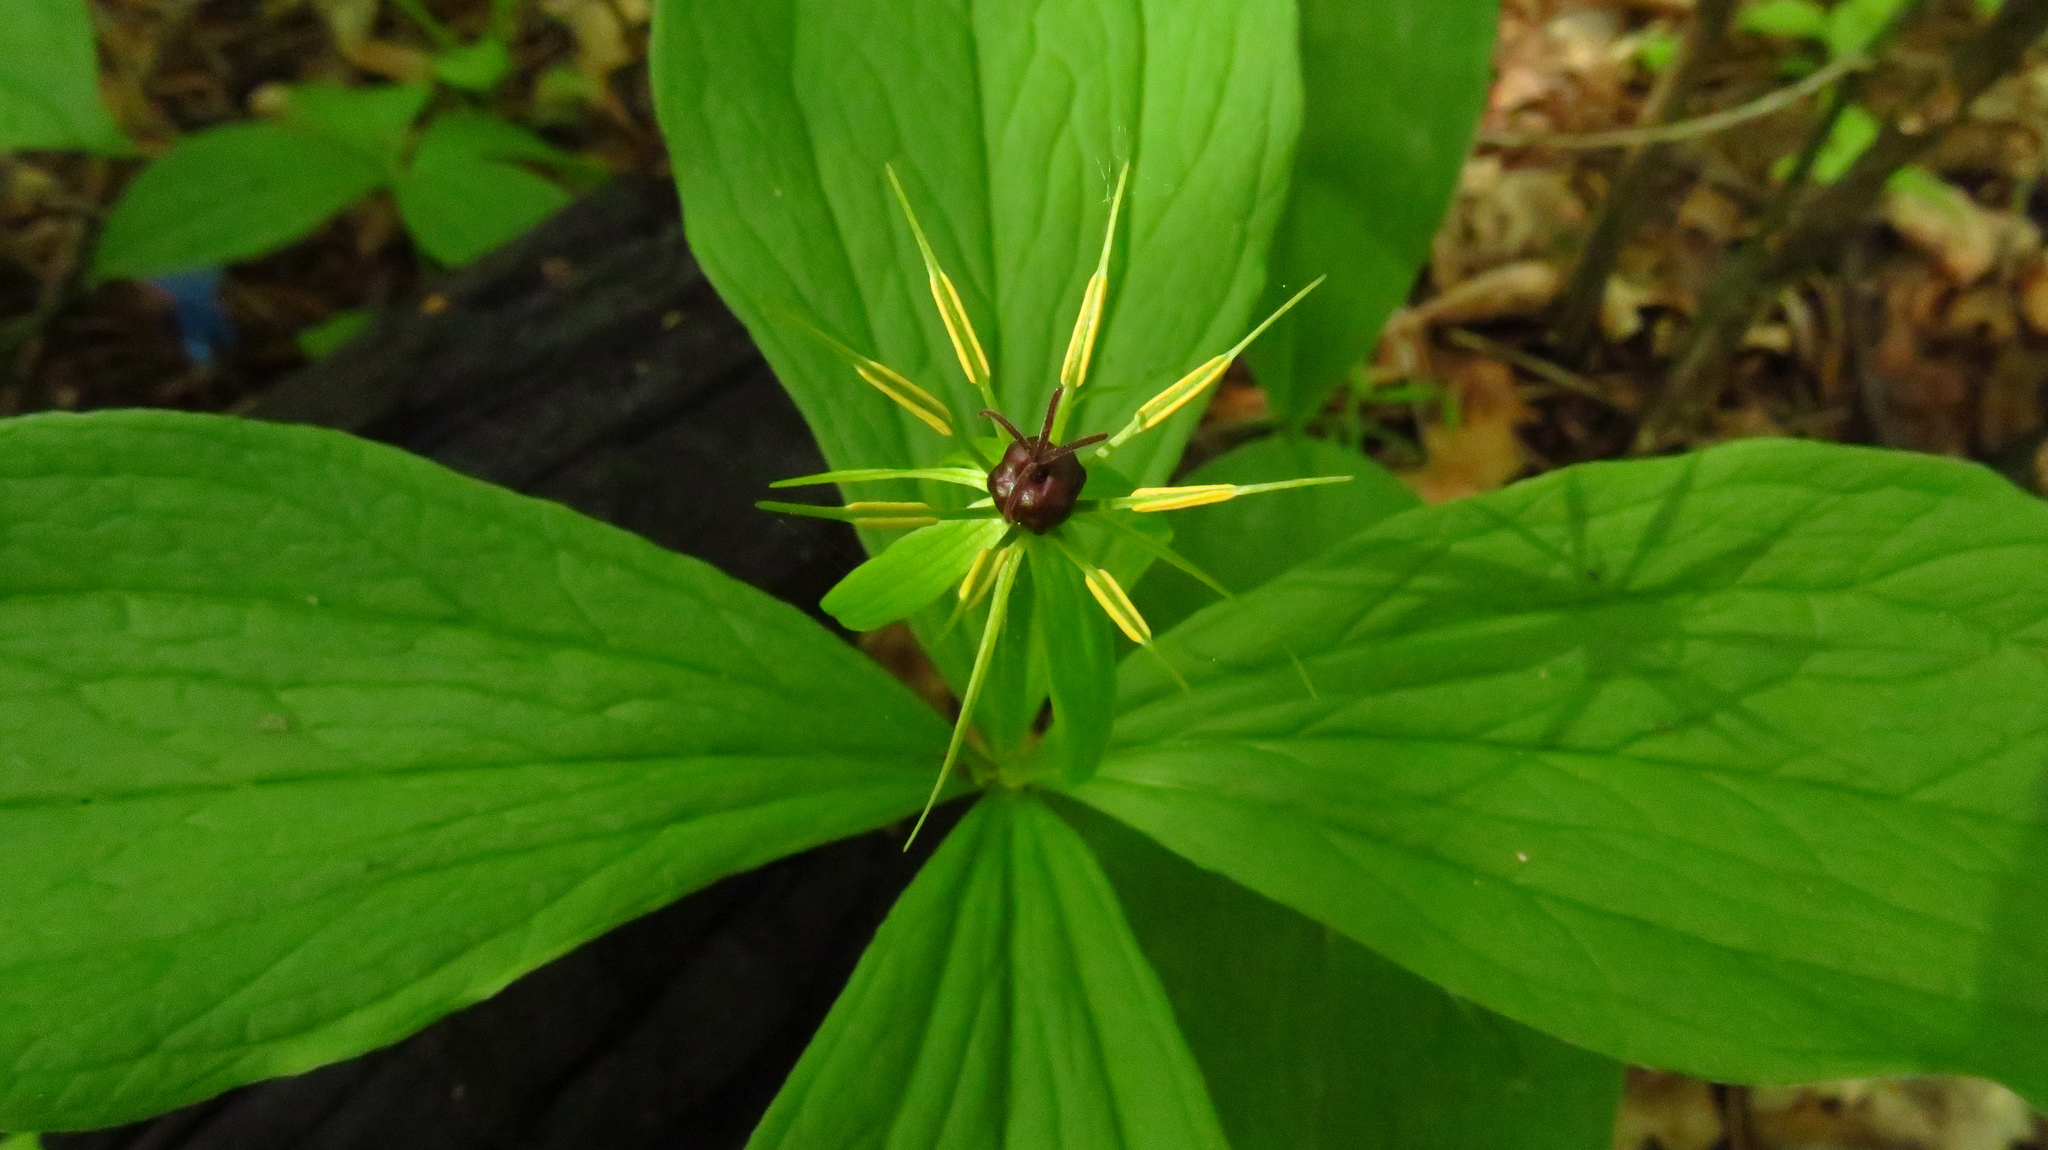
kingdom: Plantae
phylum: Tracheophyta
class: Liliopsida
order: Liliales
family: Melanthiaceae
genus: Paris
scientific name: Paris quadrifolia
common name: Herb-paris
